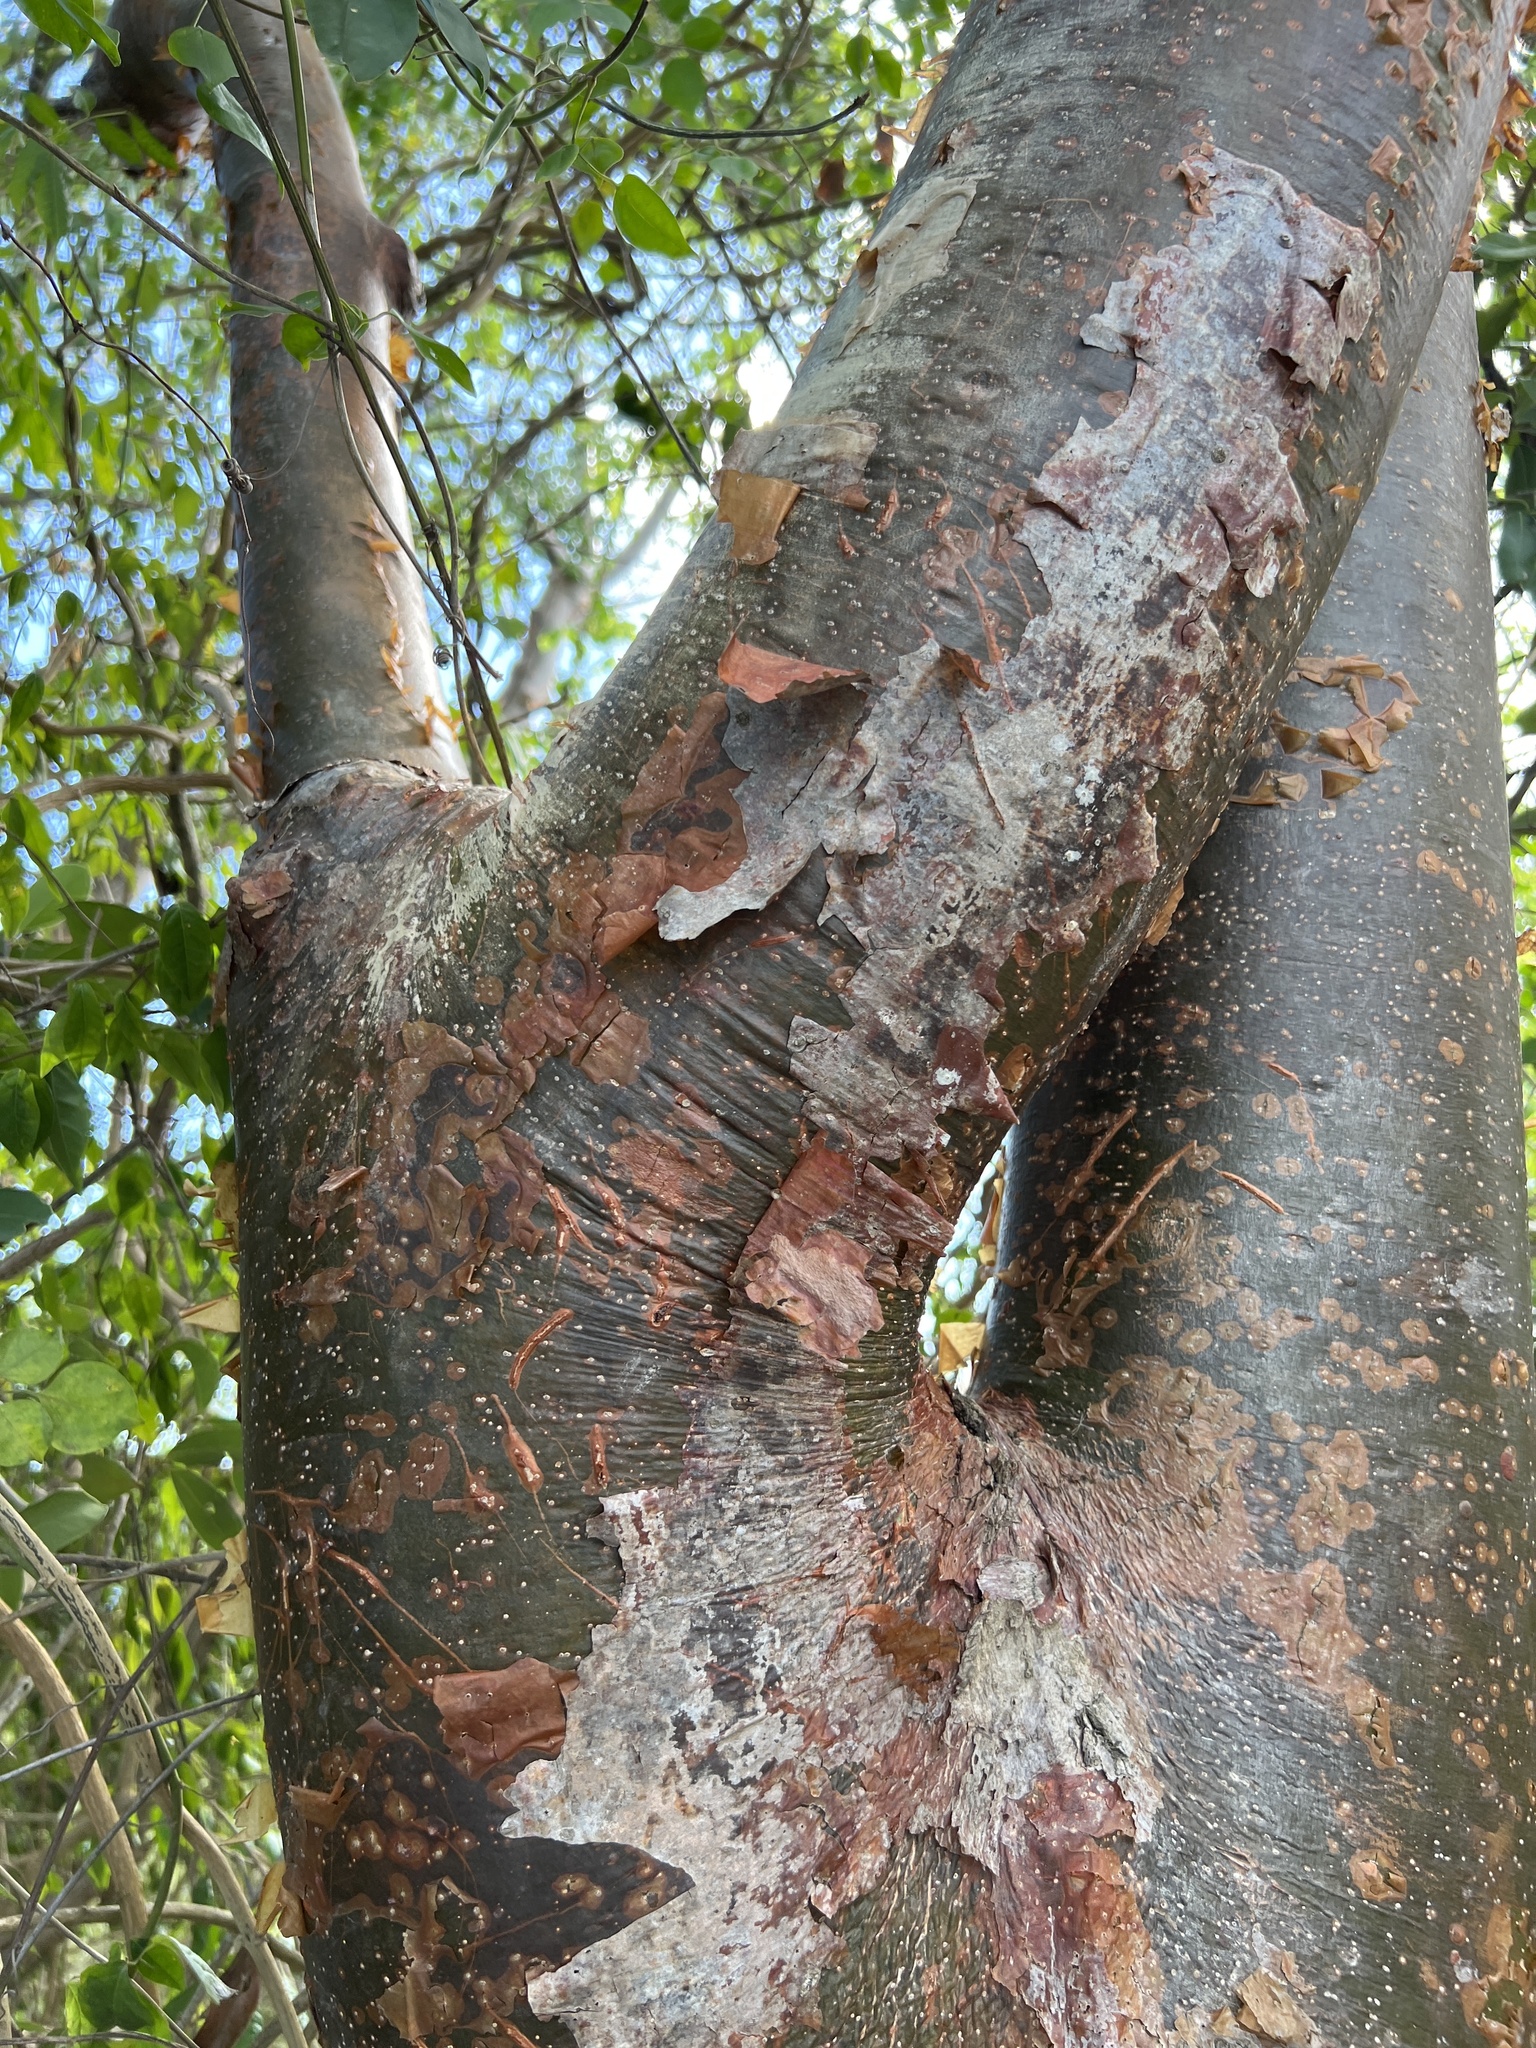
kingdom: Plantae
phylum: Tracheophyta
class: Magnoliopsida
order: Sapindales
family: Burseraceae
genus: Bursera
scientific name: Bursera simaruba
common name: Turpentine tree
